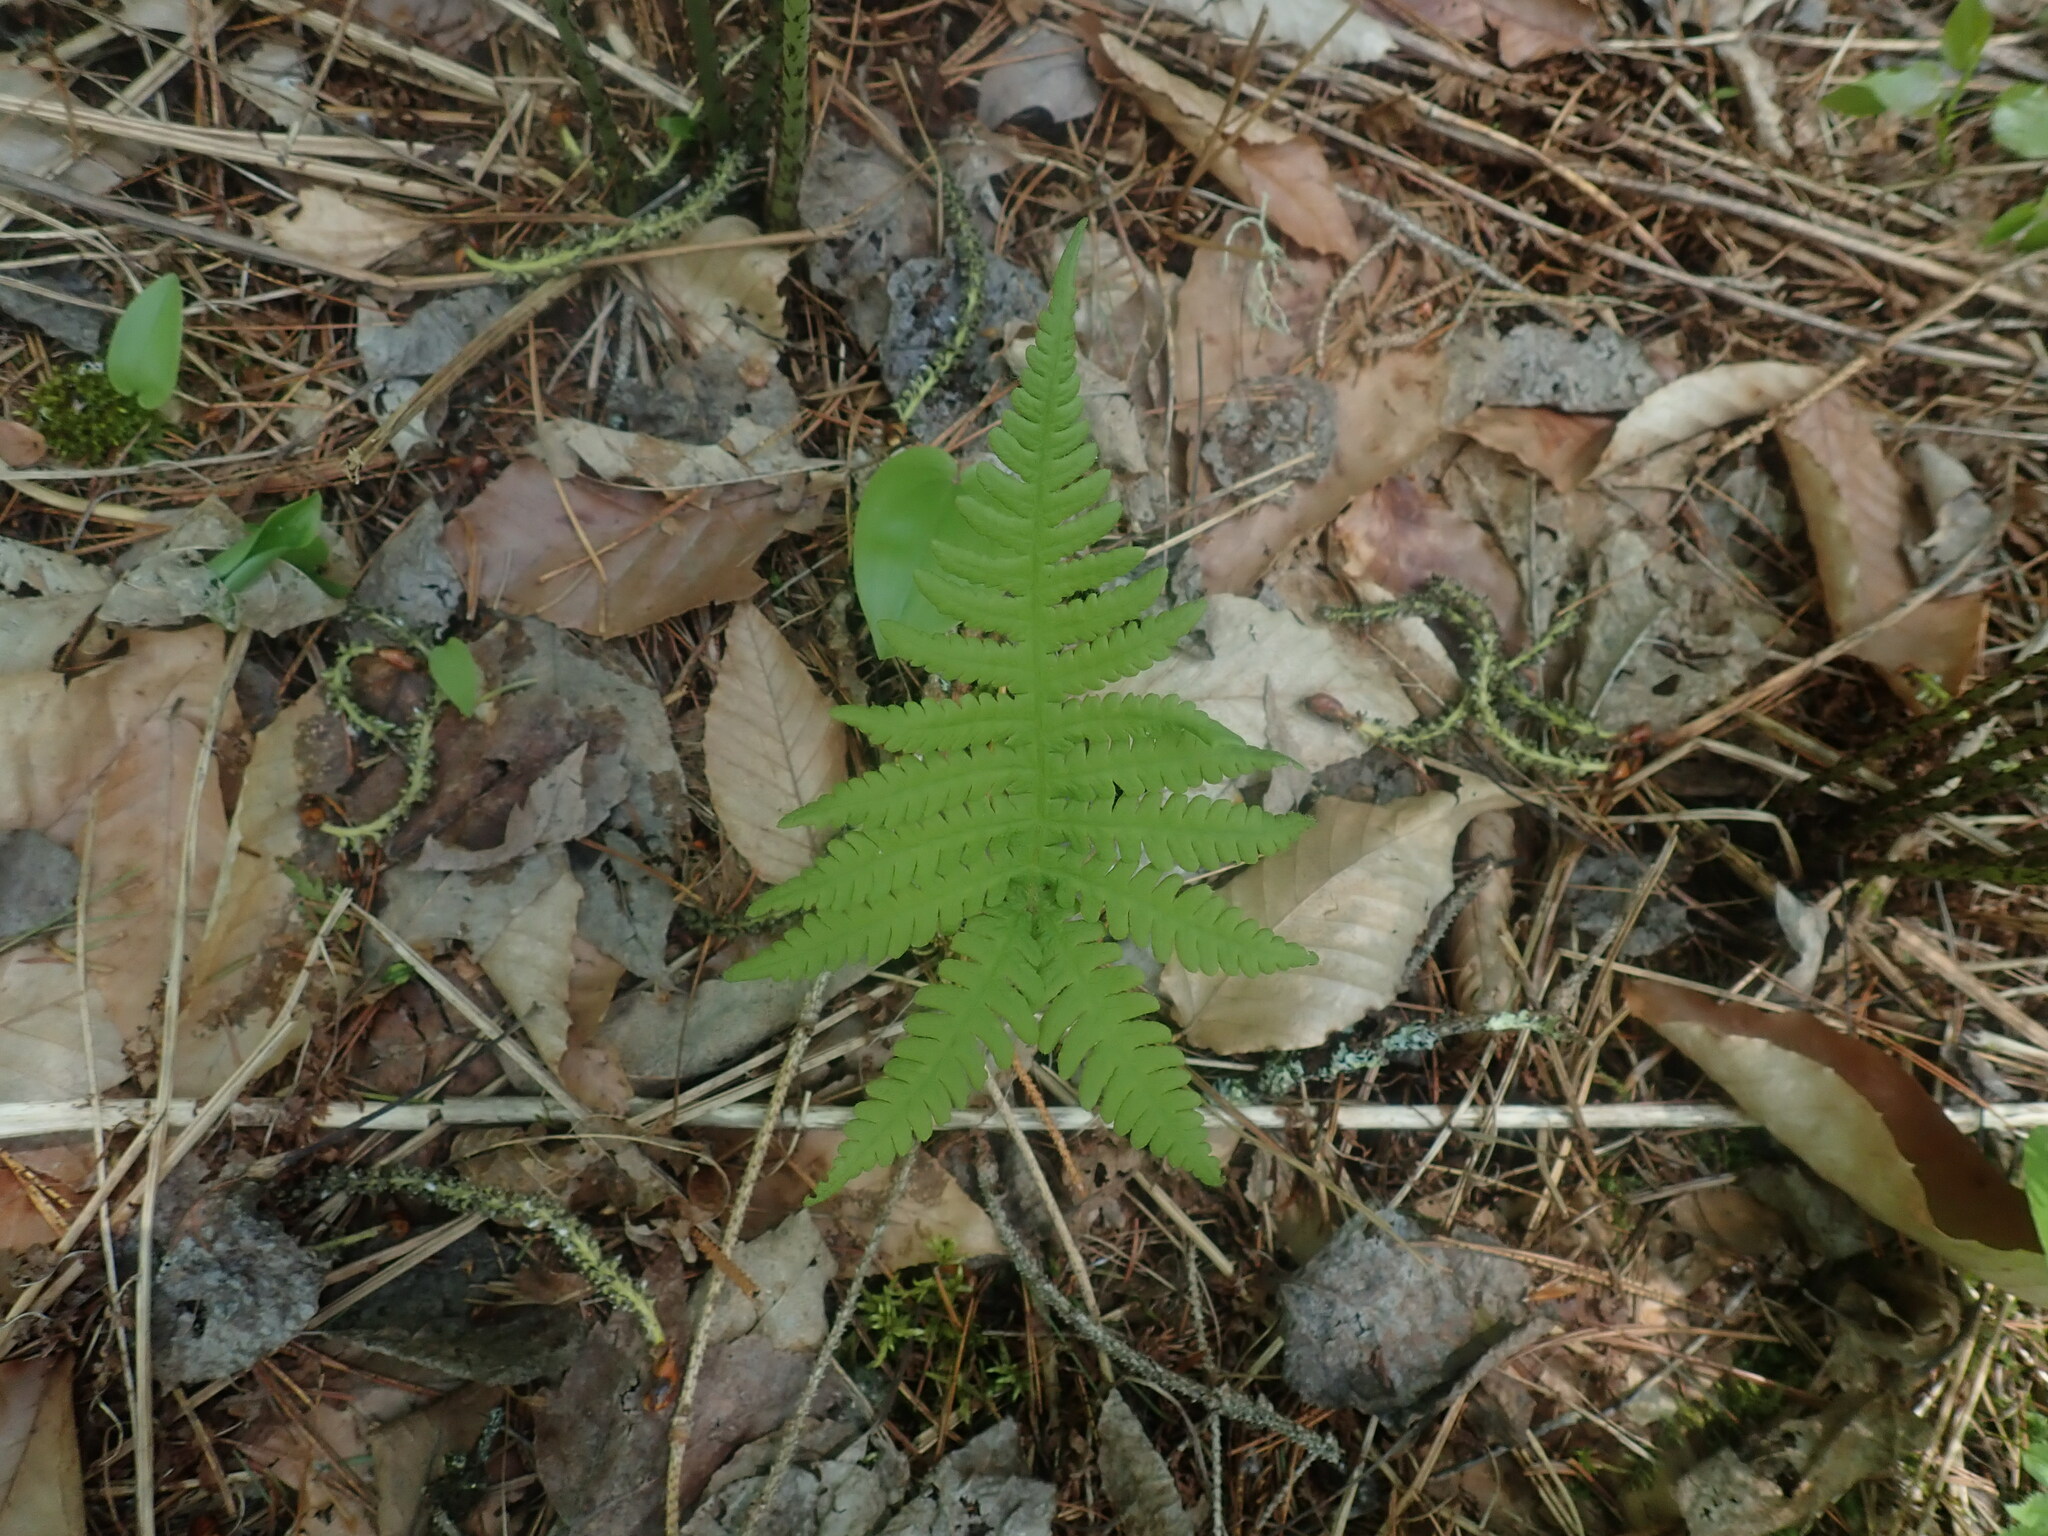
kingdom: Plantae
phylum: Tracheophyta
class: Polypodiopsida
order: Polypodiales
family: Thelypteridaceae
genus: Phegopteris
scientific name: Phegopteris connectilis
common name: Beech fern
